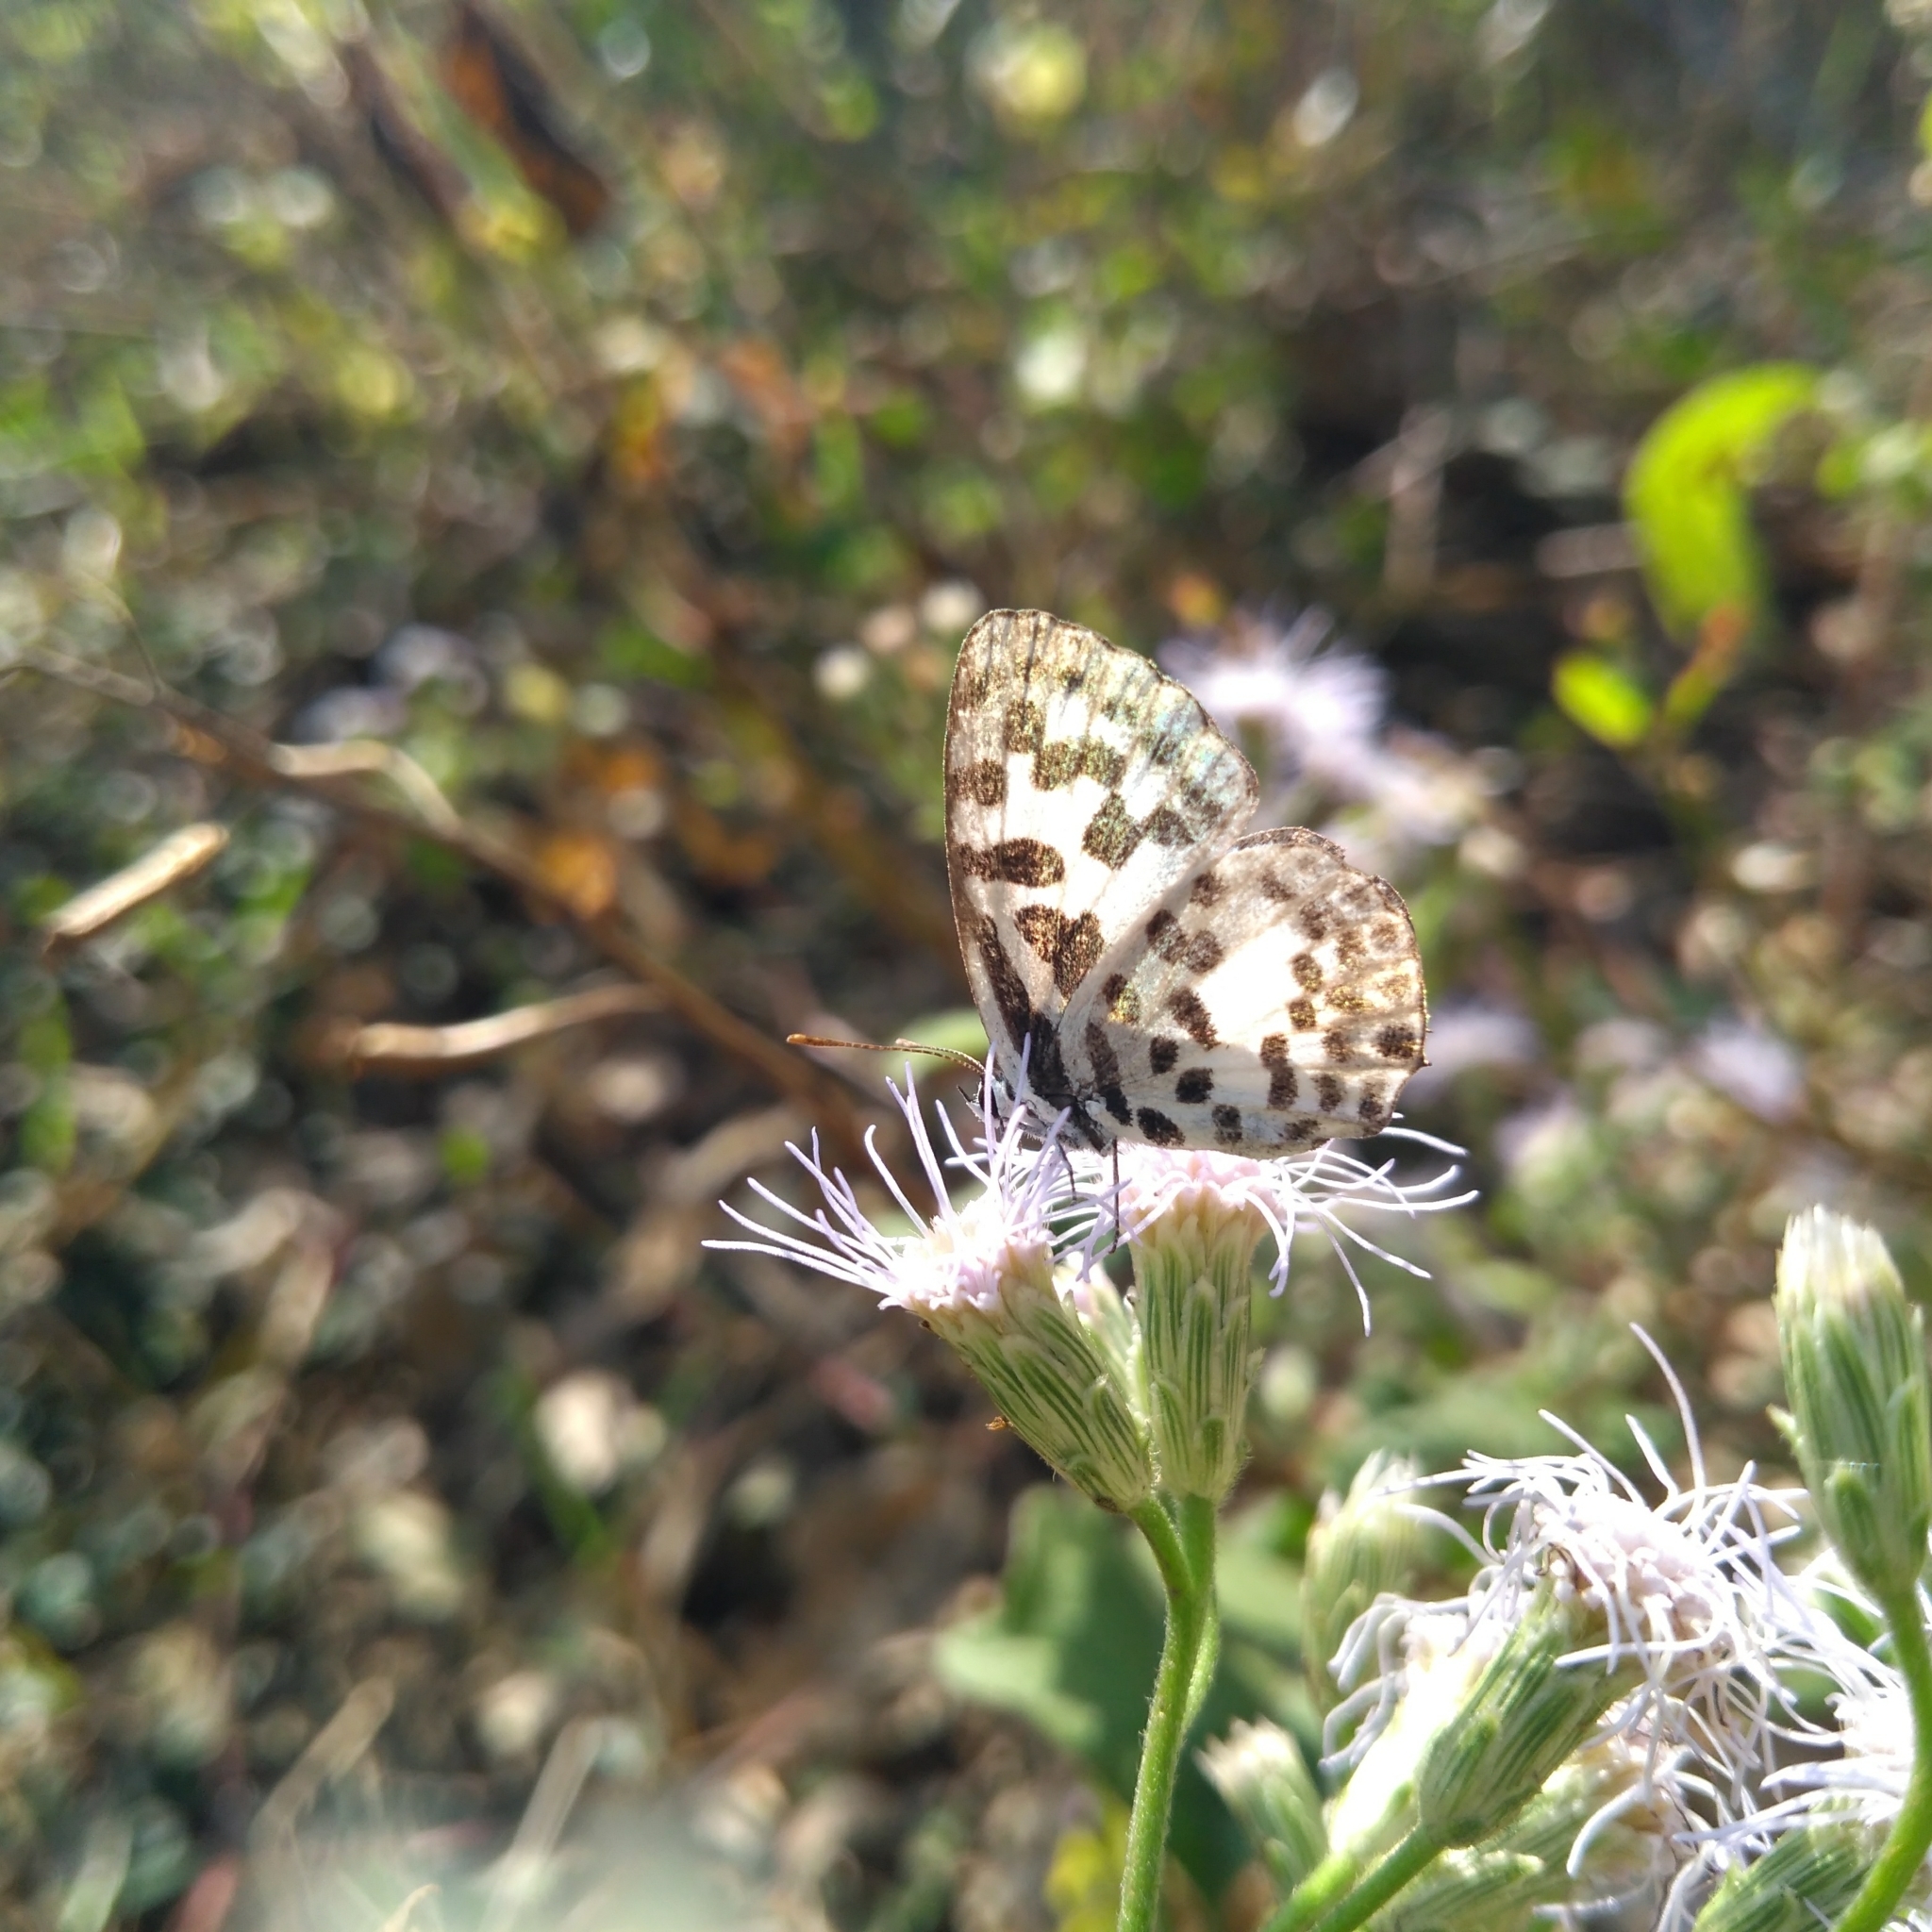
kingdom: Animalia
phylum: Arthropoda
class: Insecta
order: Lepidoptera
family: Lycaenidae
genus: Castalius
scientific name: Castalius rosimon
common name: Common pierrot
